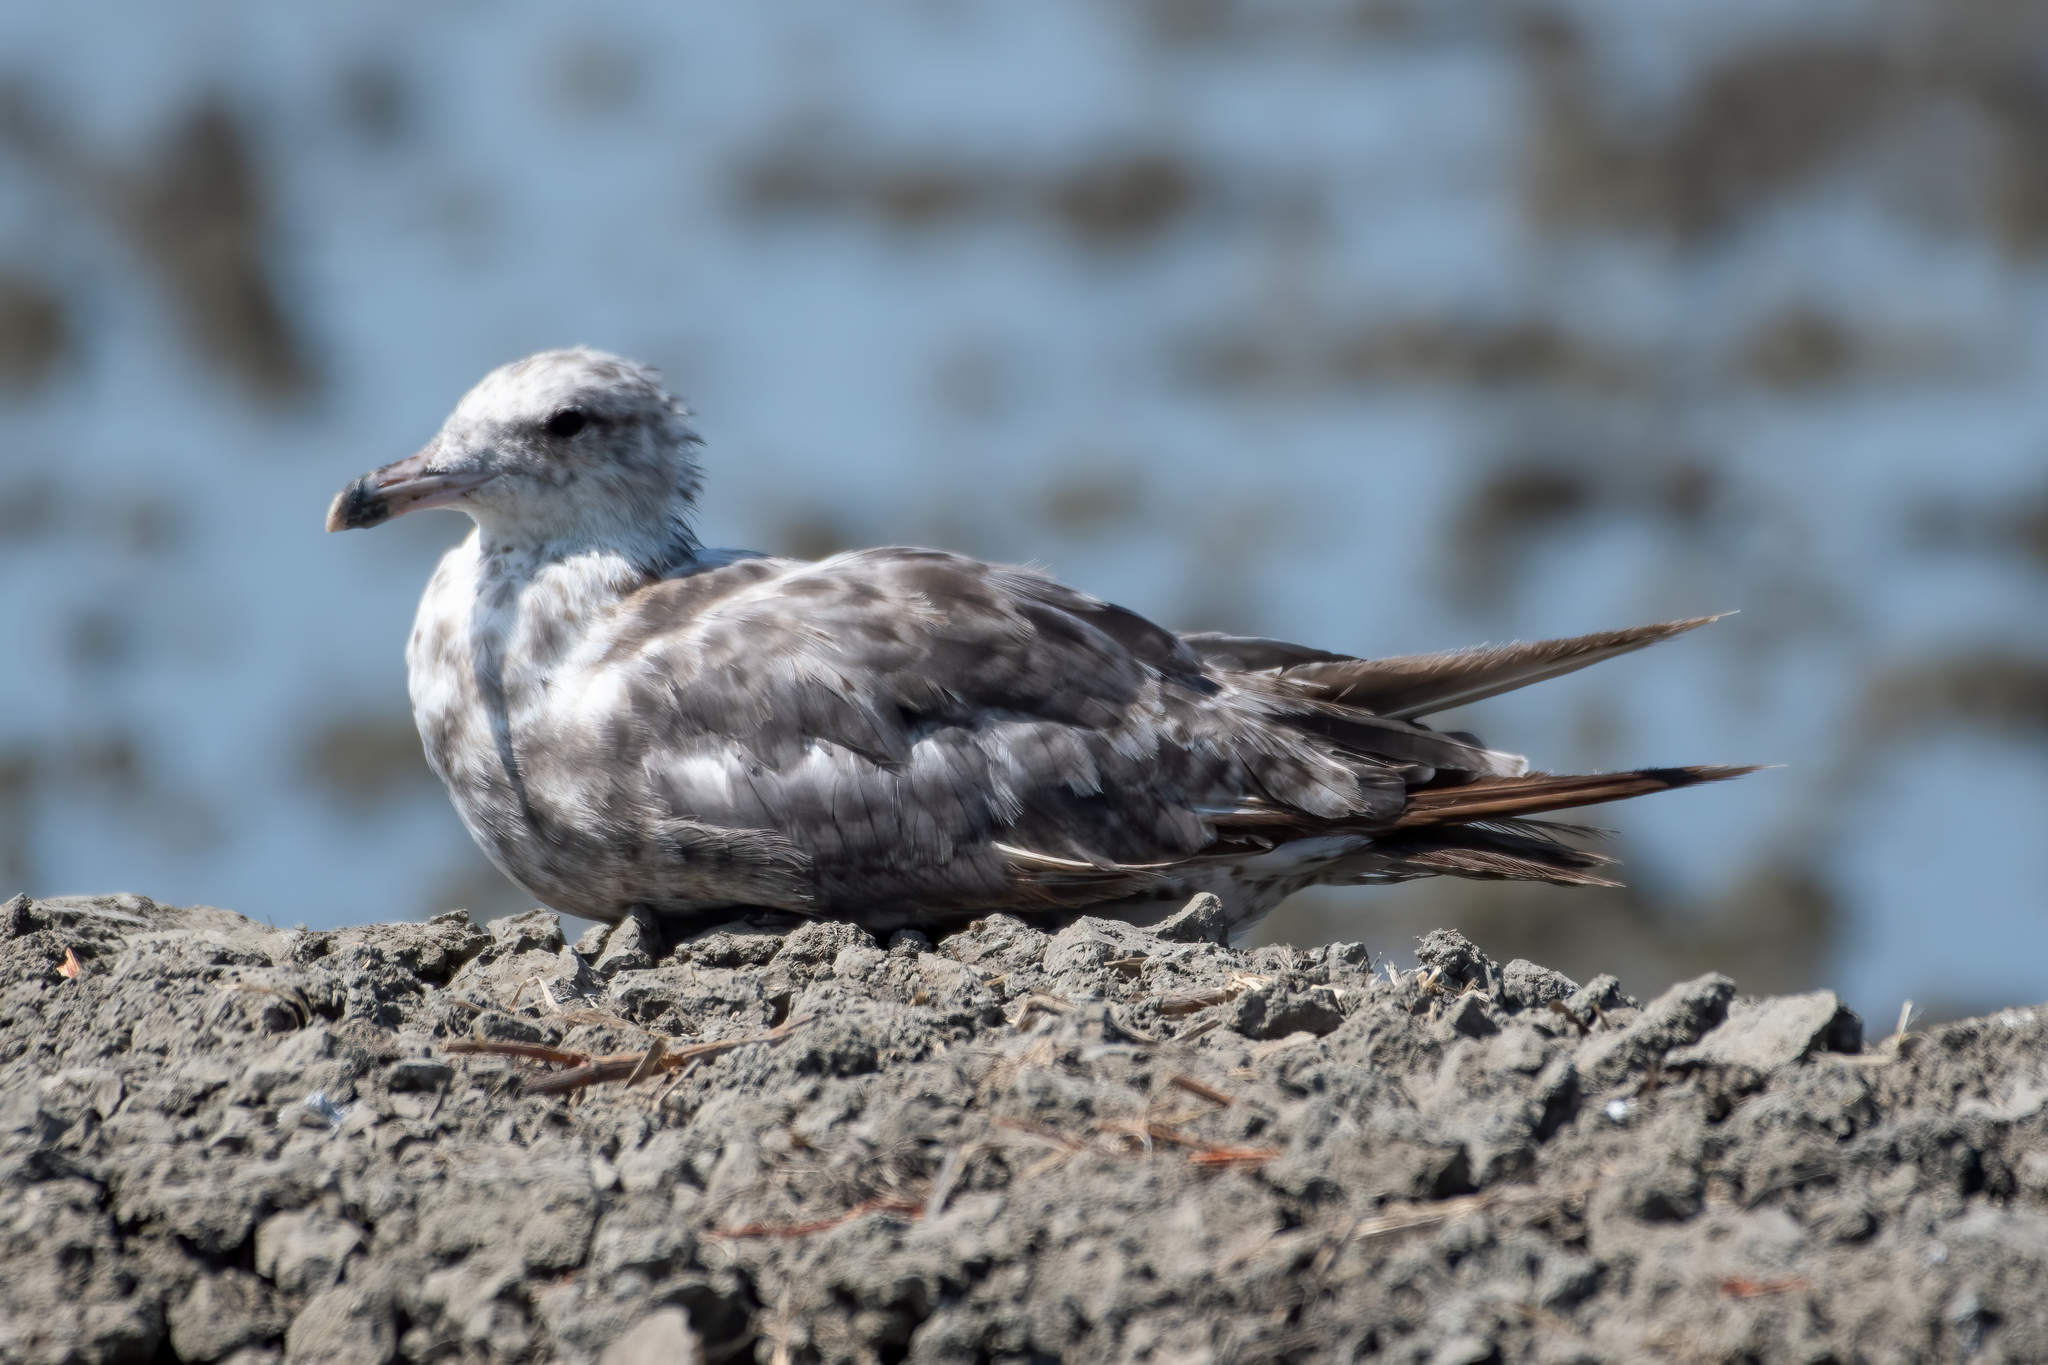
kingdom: Animalia
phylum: Chordata
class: Aves
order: Charadriiformes
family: Laridae
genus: Larus
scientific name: Larus californicus
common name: California gull
